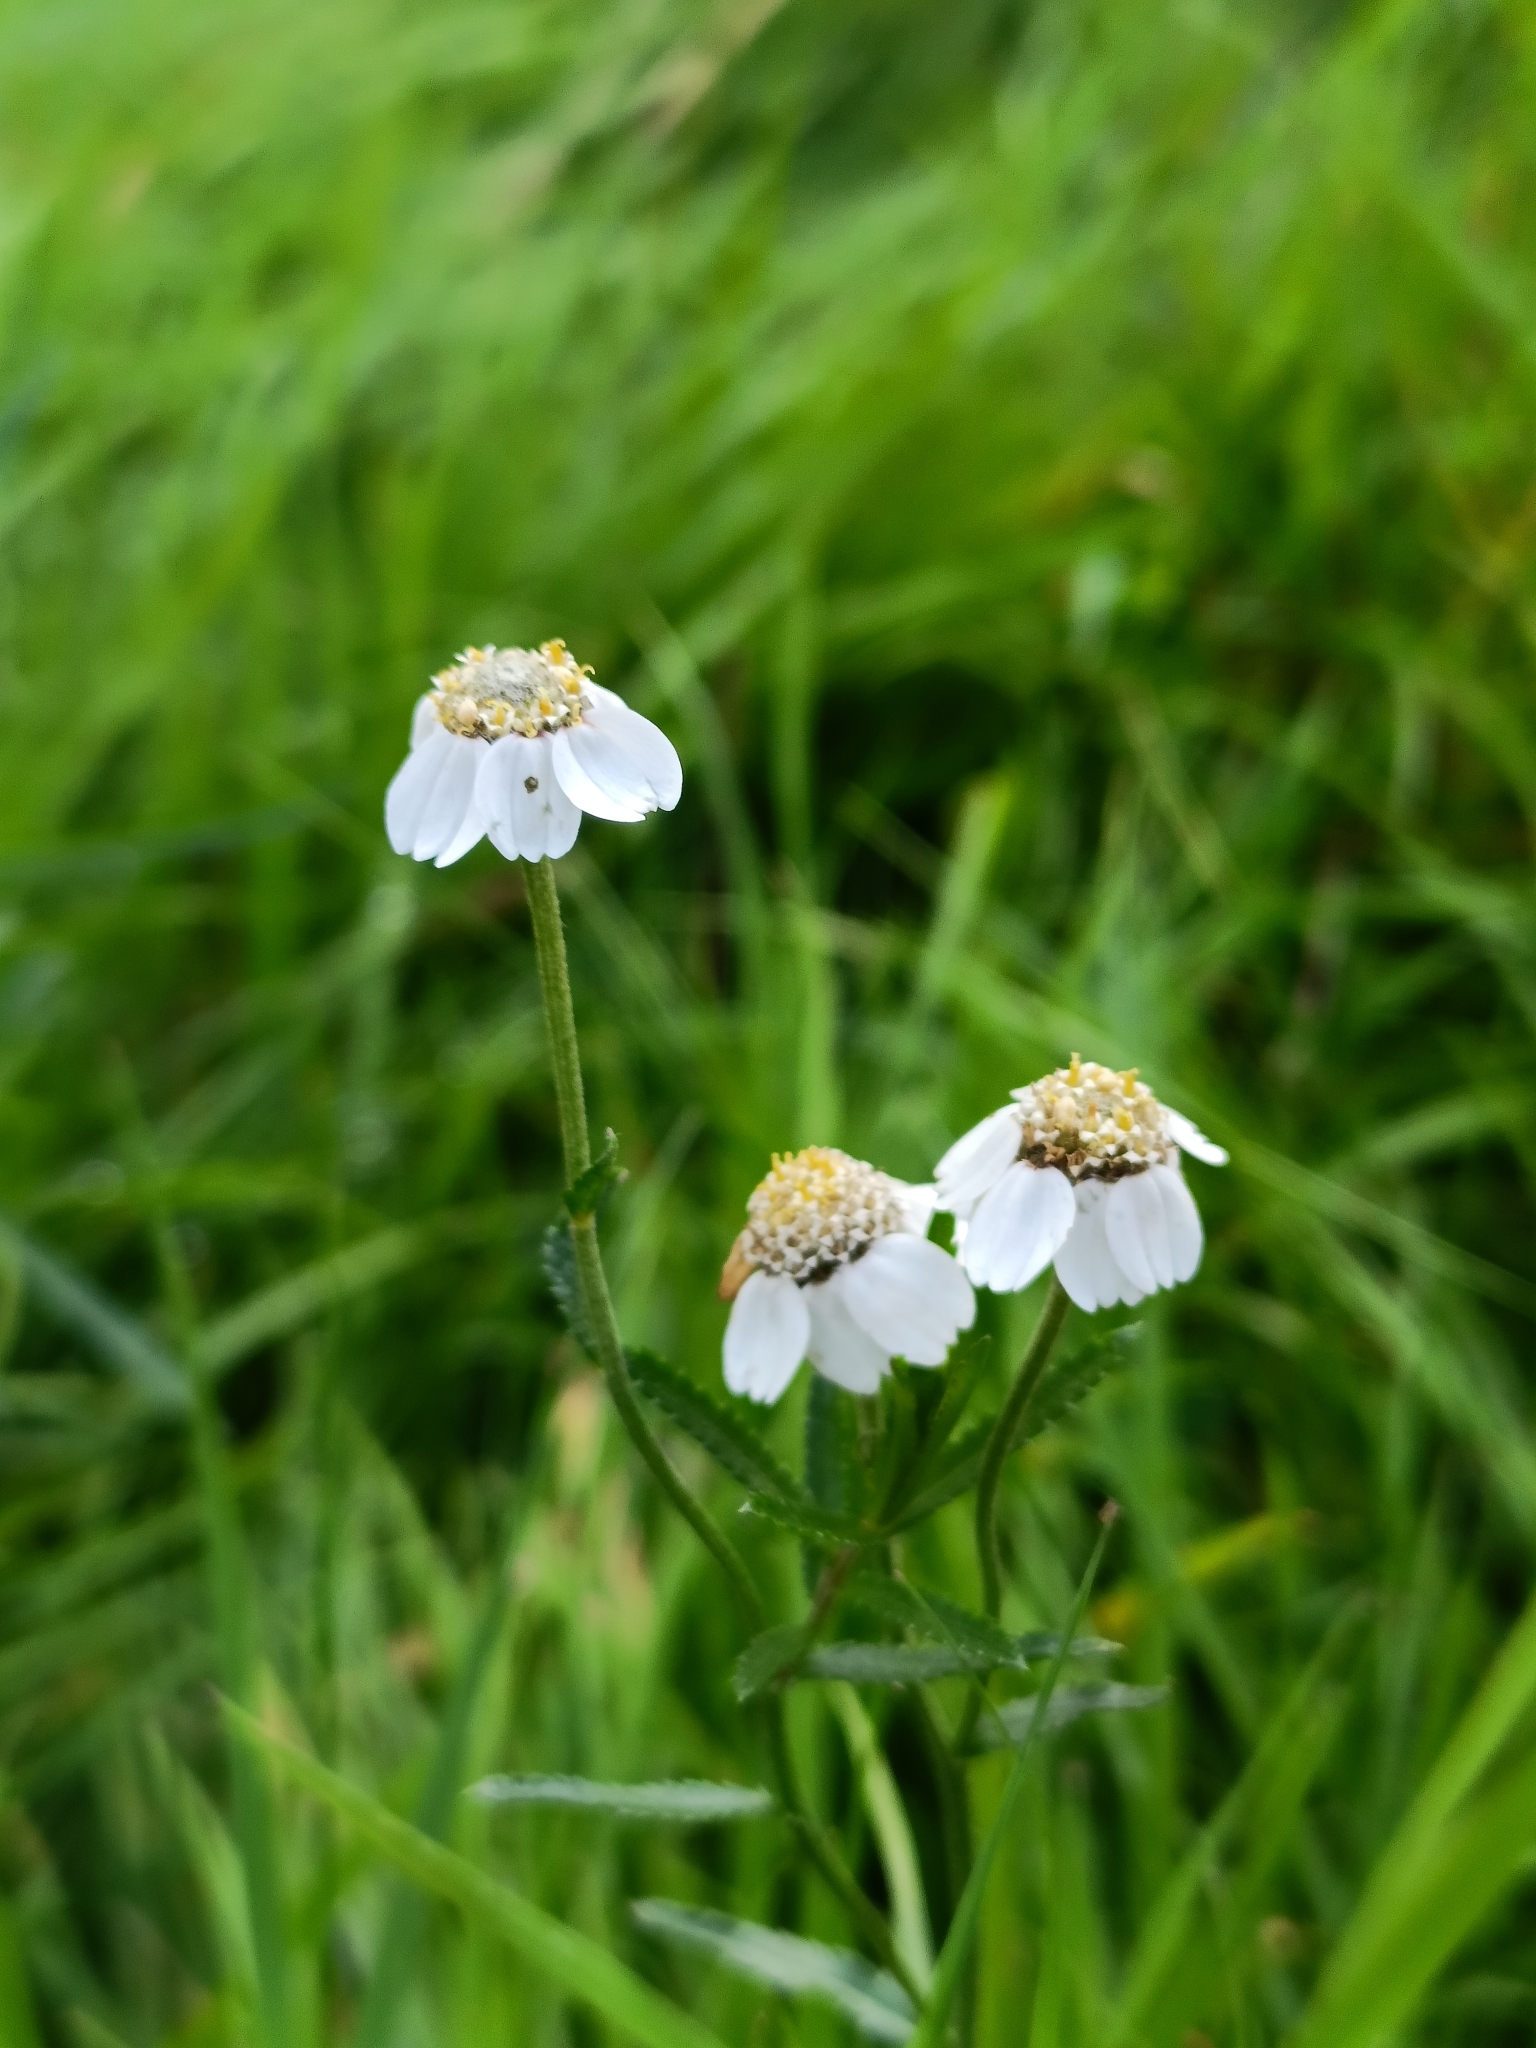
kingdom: Plantae
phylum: Tracheophyta
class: Magnoliopsida
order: Asterales
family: Asteraceae
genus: Achillea
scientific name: Achillea ptarmica
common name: Sneezeweed
